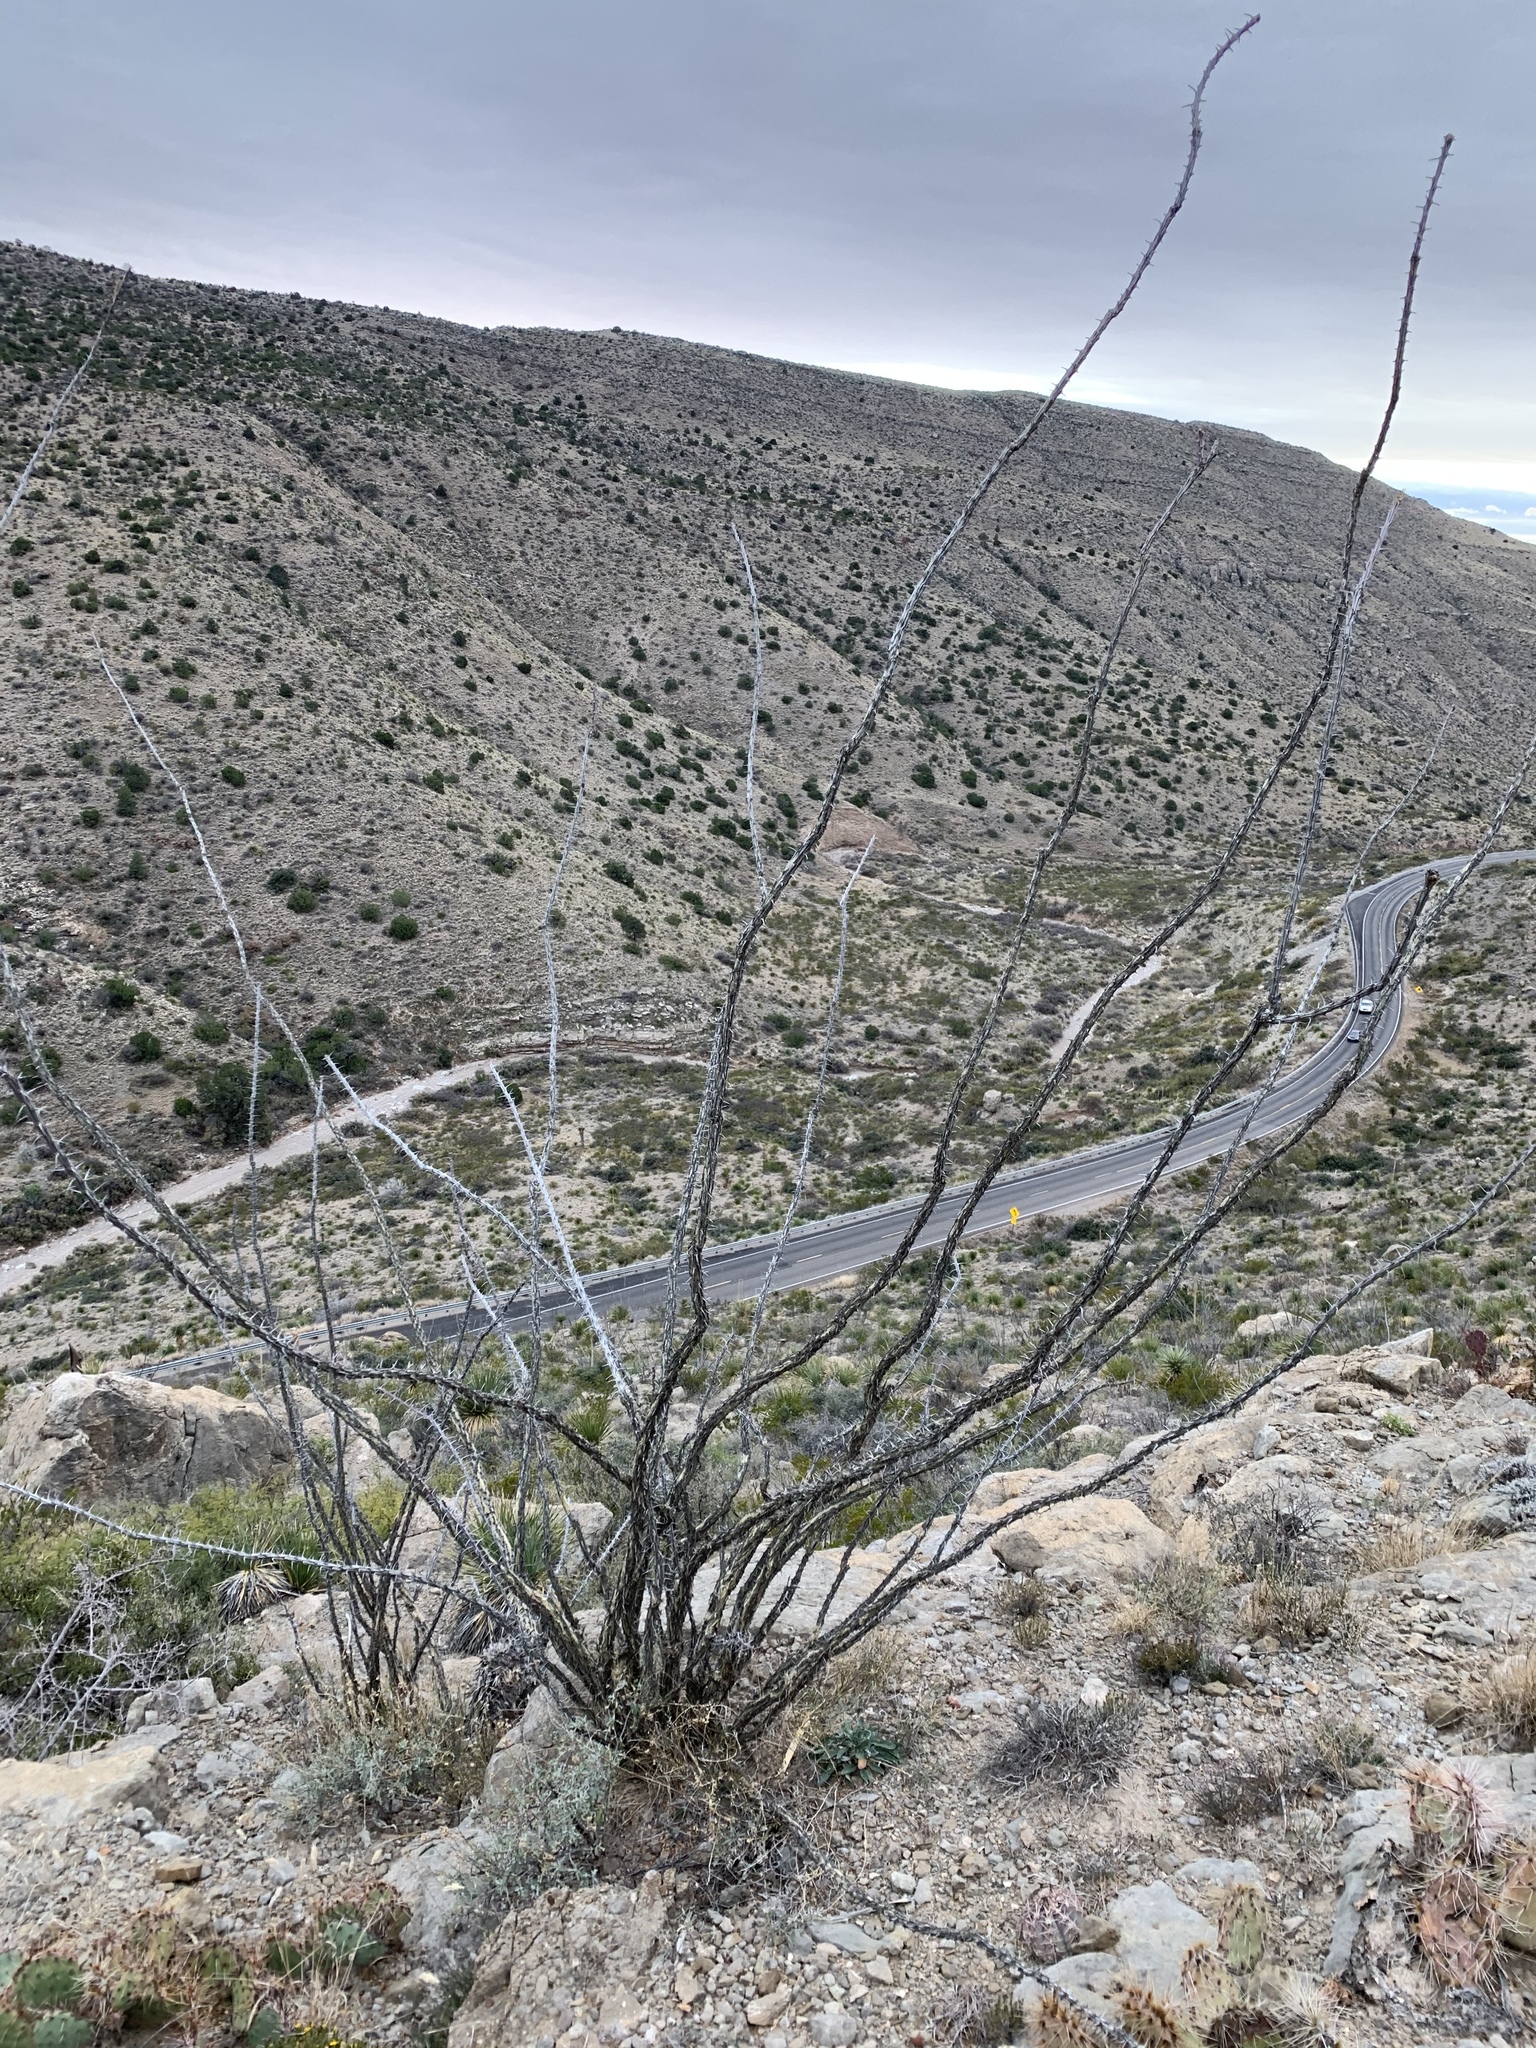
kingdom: Plantae
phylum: Tracheophyta
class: Magnoliopsida
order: Ericales
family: Fouquieriaceae
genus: Fouquieria
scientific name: Fouquieria splendens
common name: Vine-cactus
